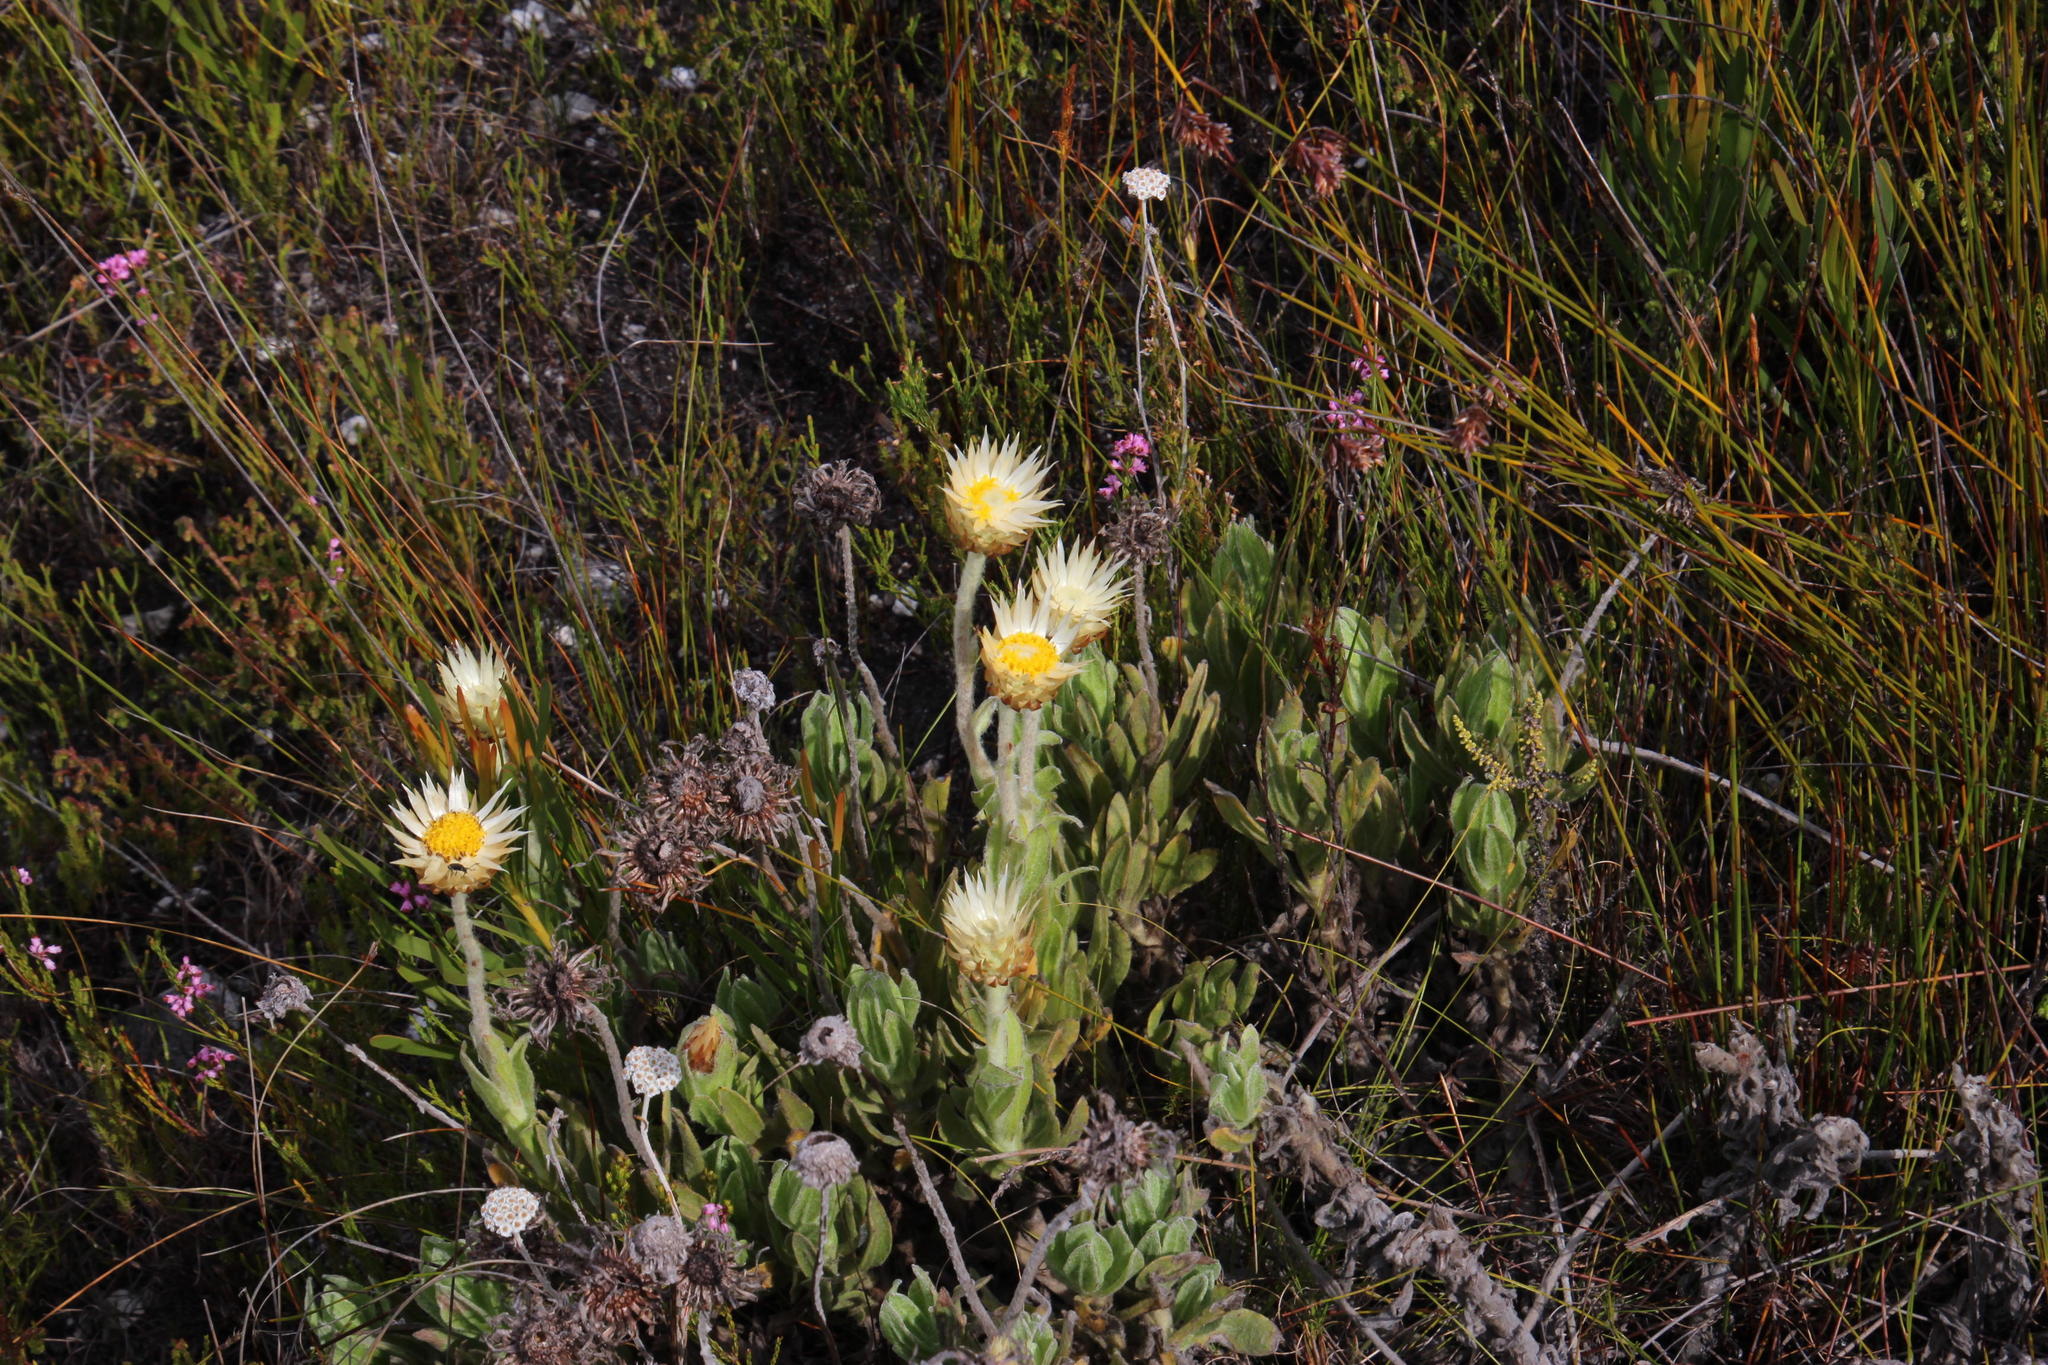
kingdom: Plantae
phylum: Tracheophyta
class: Magnoliopsida
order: Asterales
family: Asteraceae
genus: Syncarpha
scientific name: Syncarpha speciosissima
